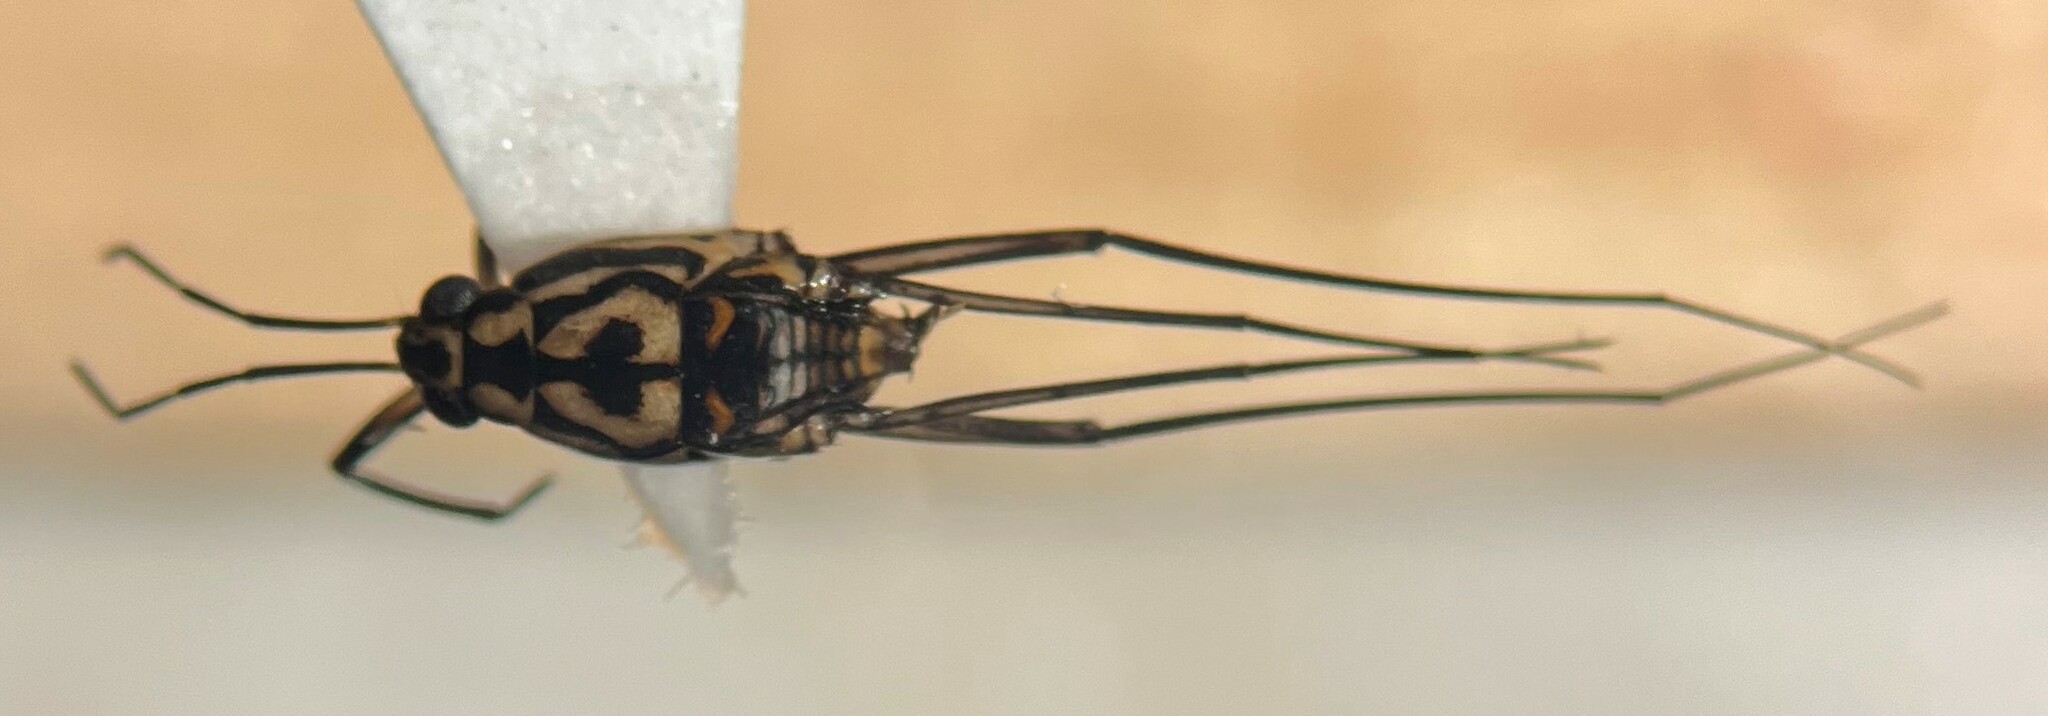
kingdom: Animalia
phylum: Arthropoda
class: Insecta
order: Hemiptera
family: Gerridae
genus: Trepobates
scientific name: Trepobates pictus
